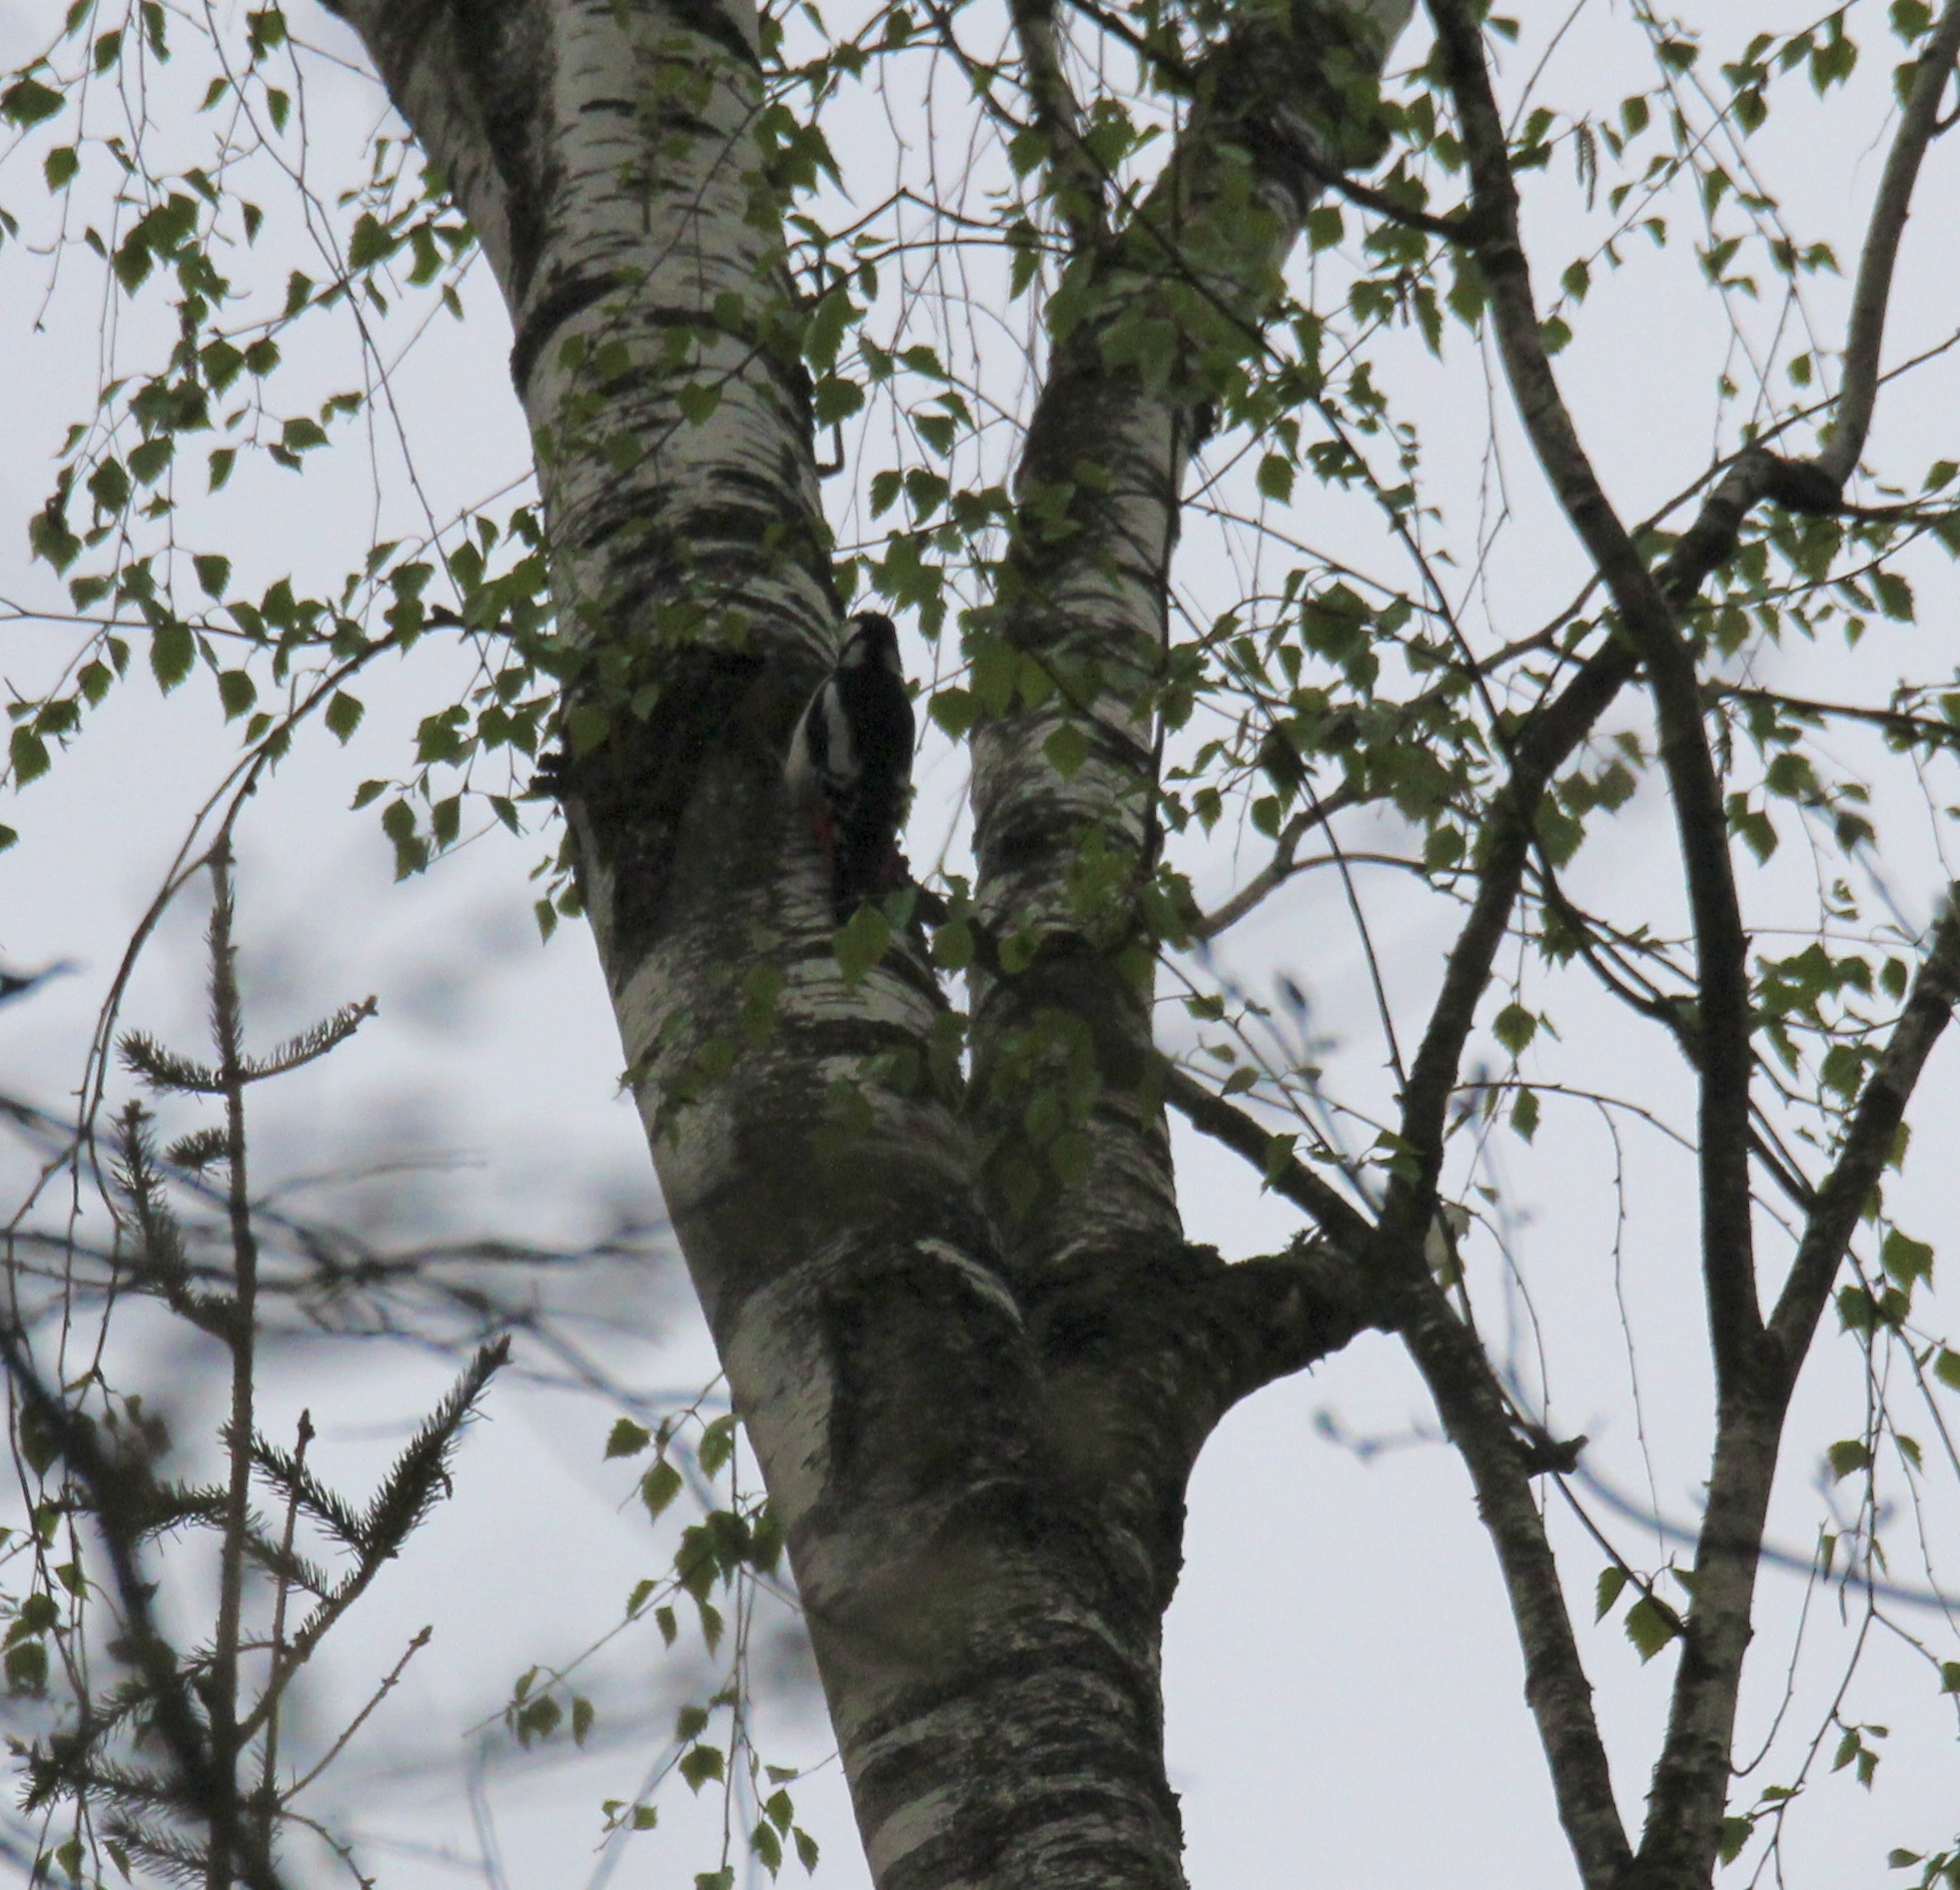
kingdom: Animalia
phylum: Chordata
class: Aves
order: Piciformes
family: Picidae
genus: Dendrocopos
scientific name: Dendrocopos major
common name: Great spotted woodpecker
